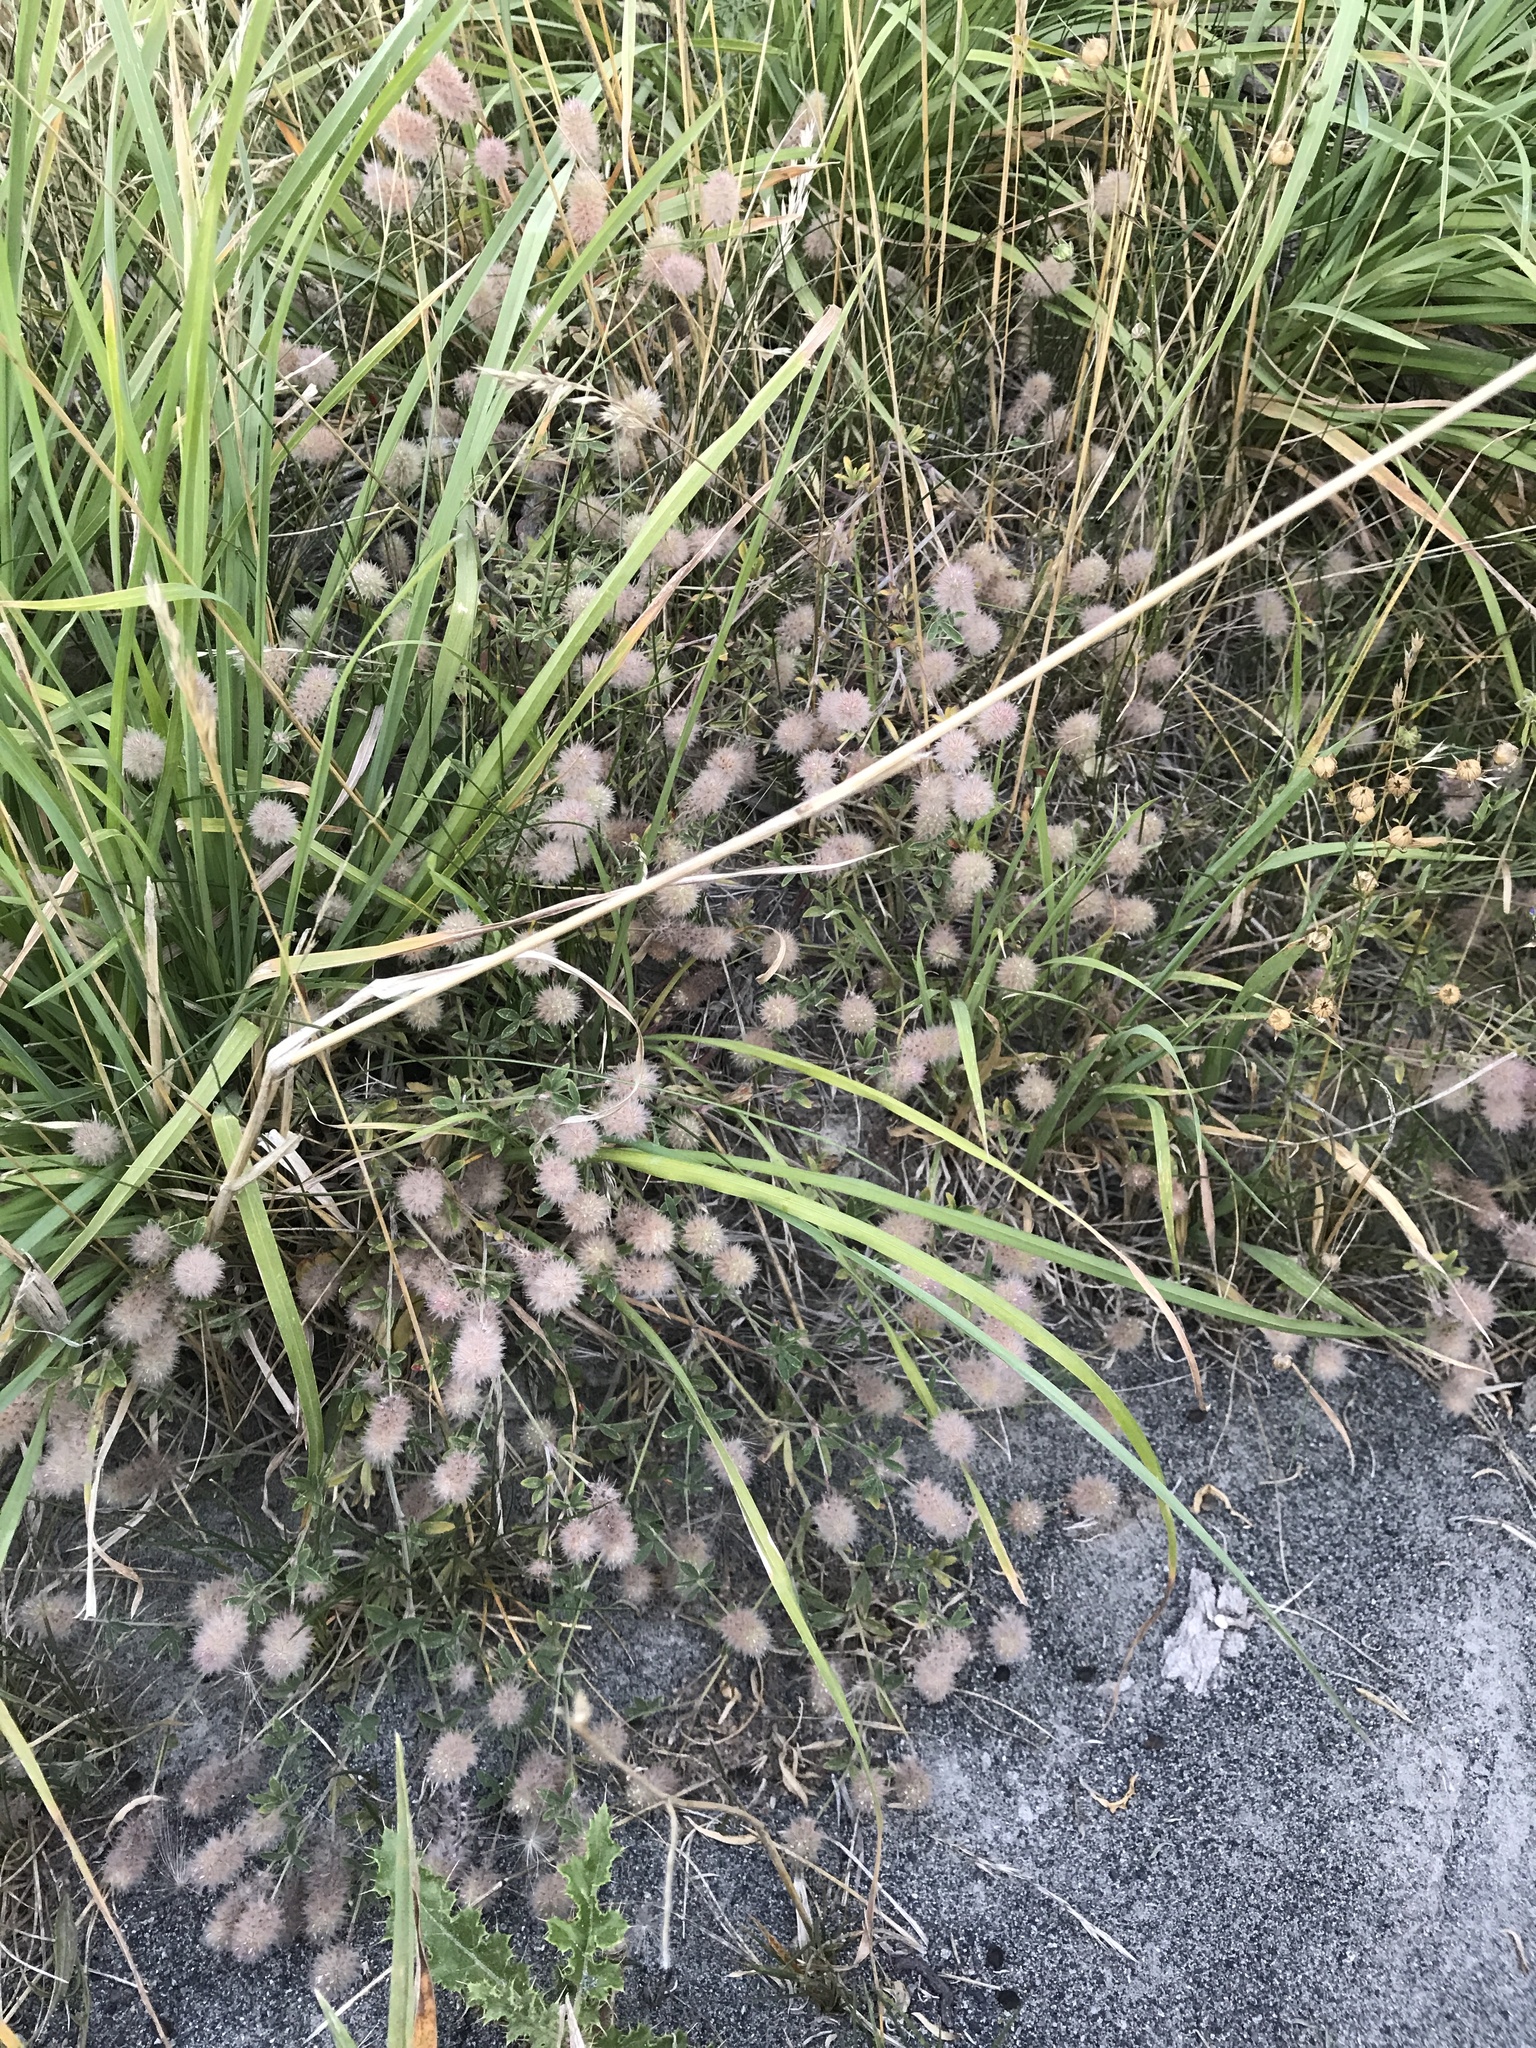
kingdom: Plantae
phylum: Tracheophyta
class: Magnoliopsida
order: Fabales
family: Fabaceae
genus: Trifolium
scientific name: Trifolium arvense
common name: Hare's-foot clover
